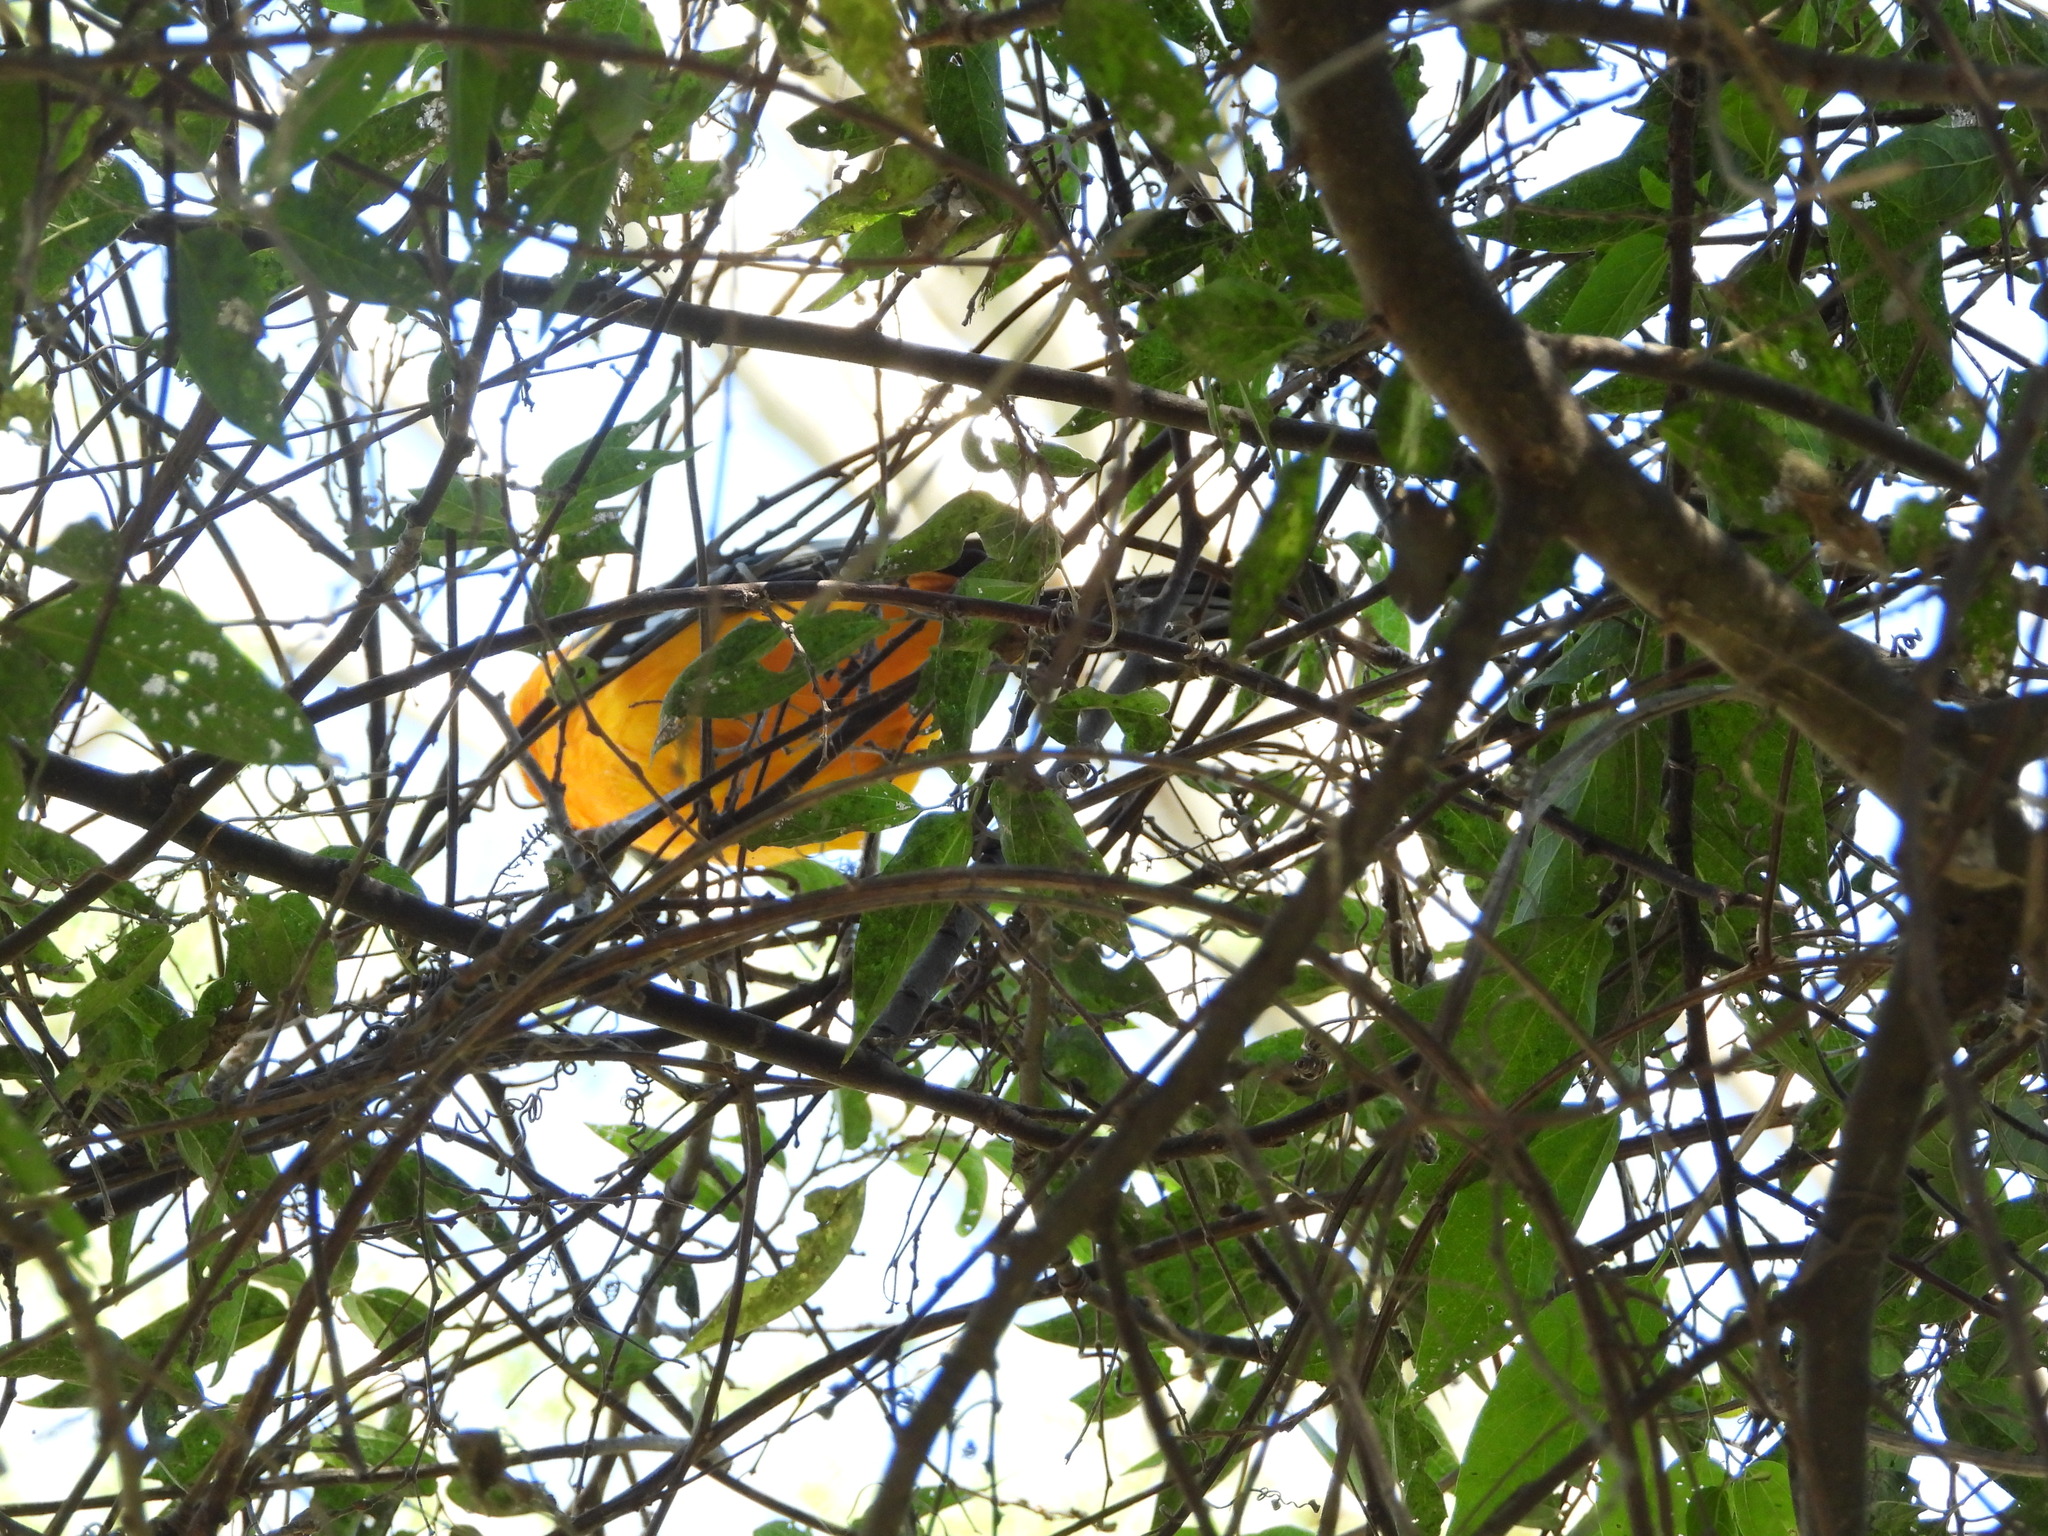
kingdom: Animalia
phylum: Chordata
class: Aves
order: Passeriformes
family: Icteridae
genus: Icterus
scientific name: Icterus gularis
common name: Altamira oriole
